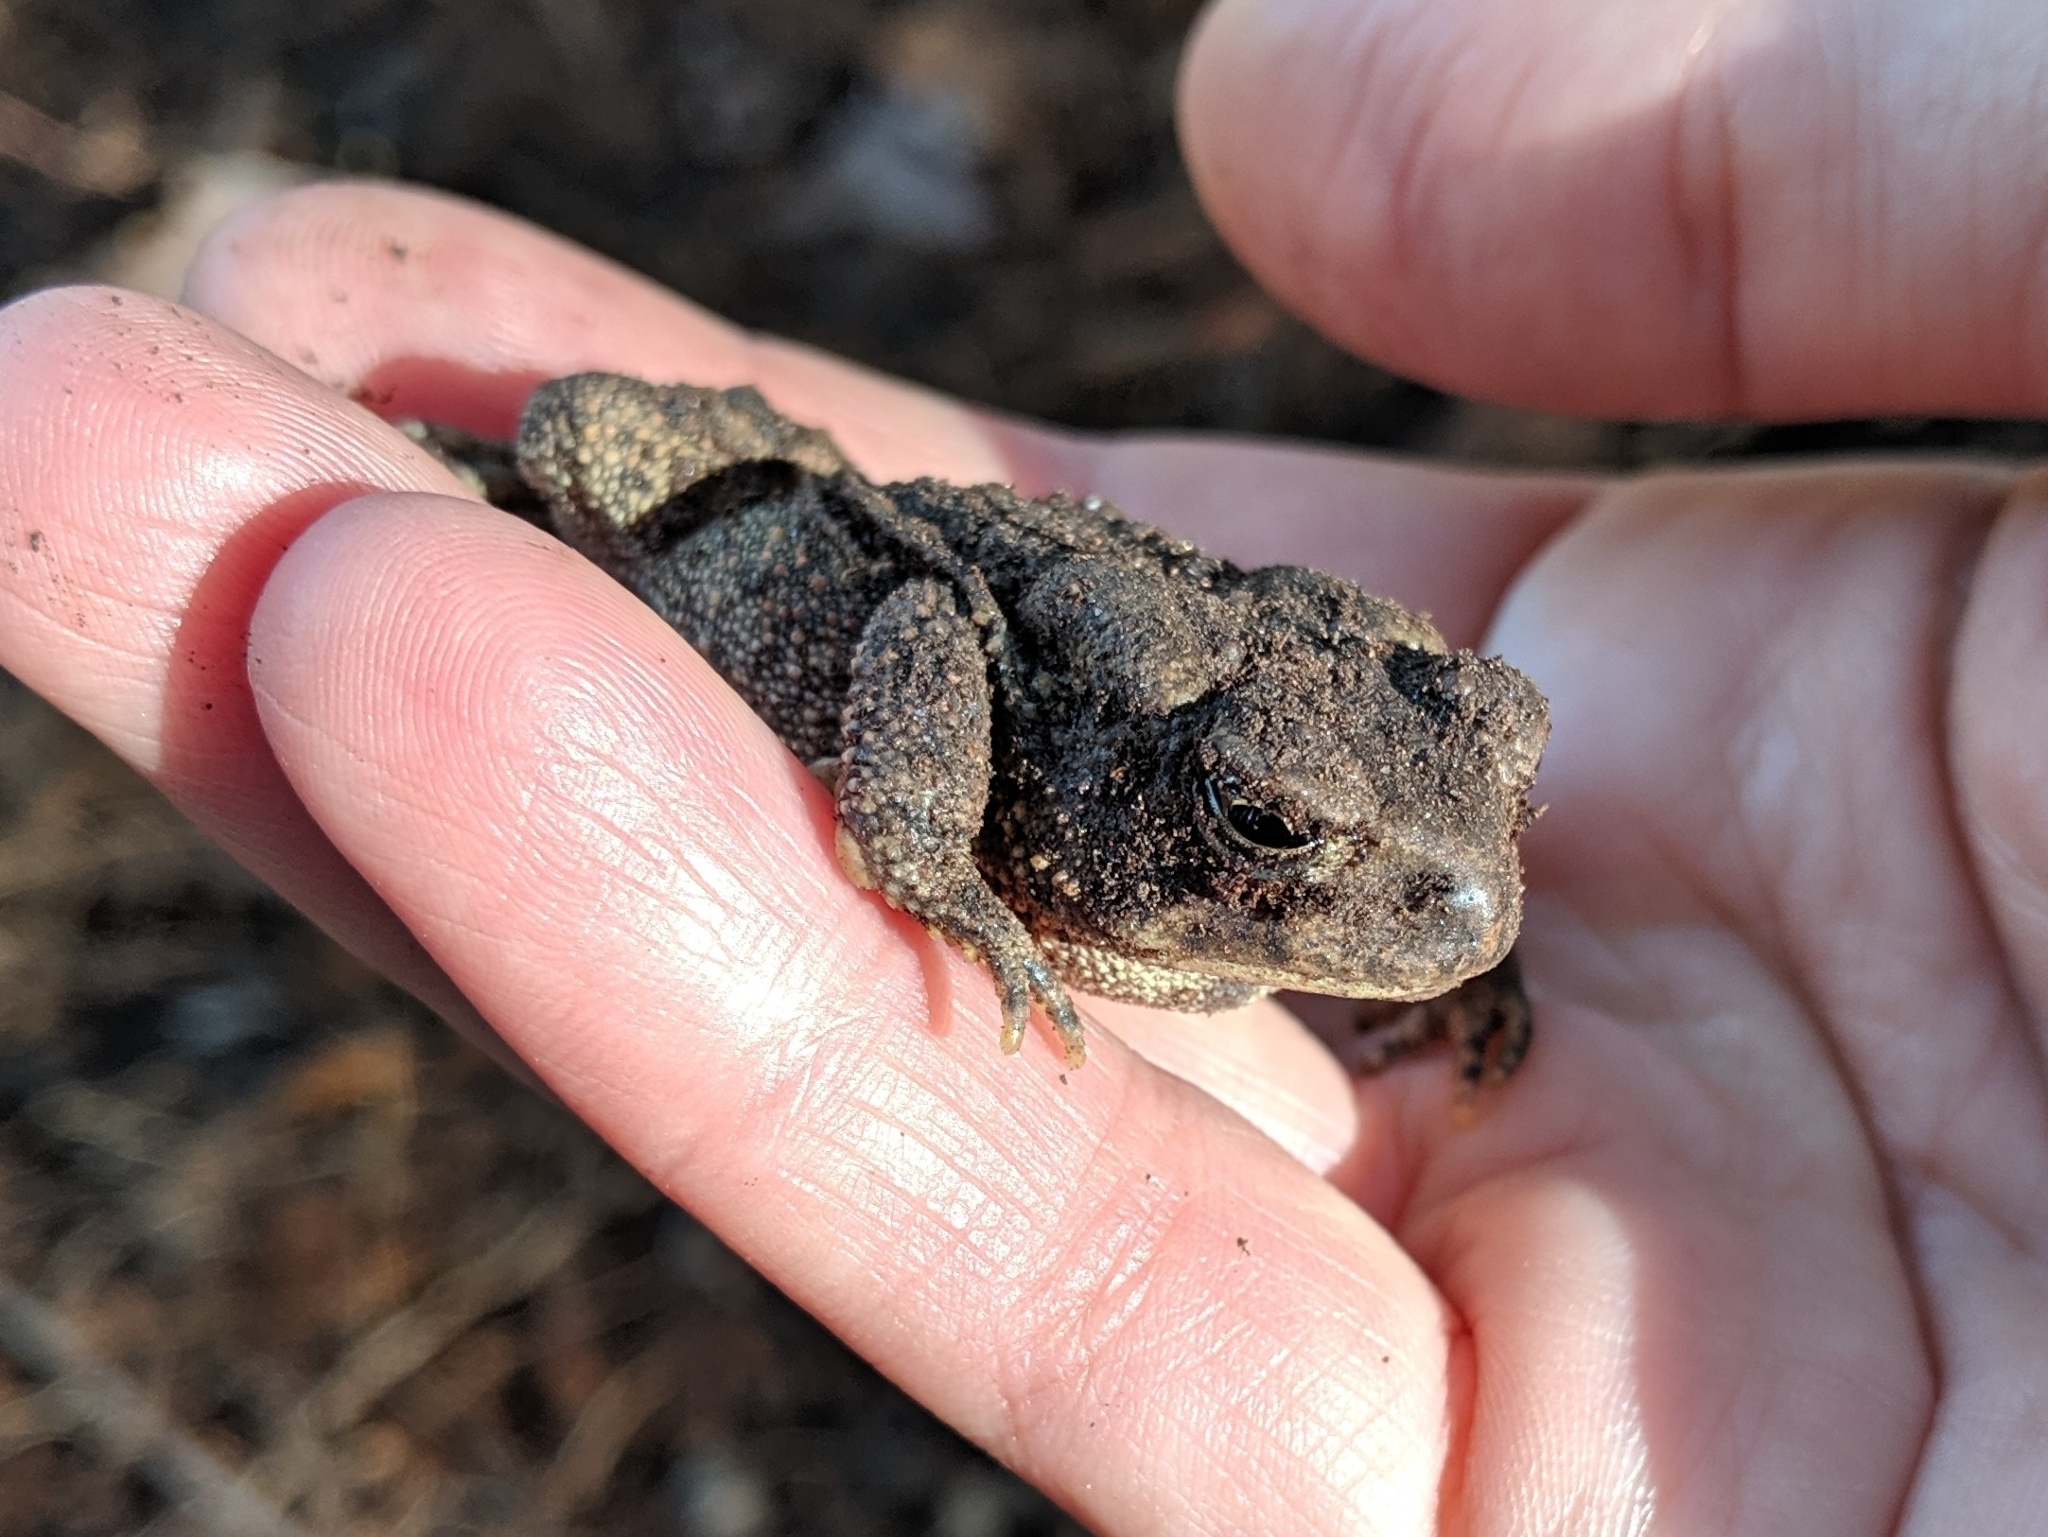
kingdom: Animalia
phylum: Chordata
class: Amphibia
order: Anura
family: Bufonidae
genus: Anaxyrus
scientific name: Anaxyrus americanus
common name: American toad
